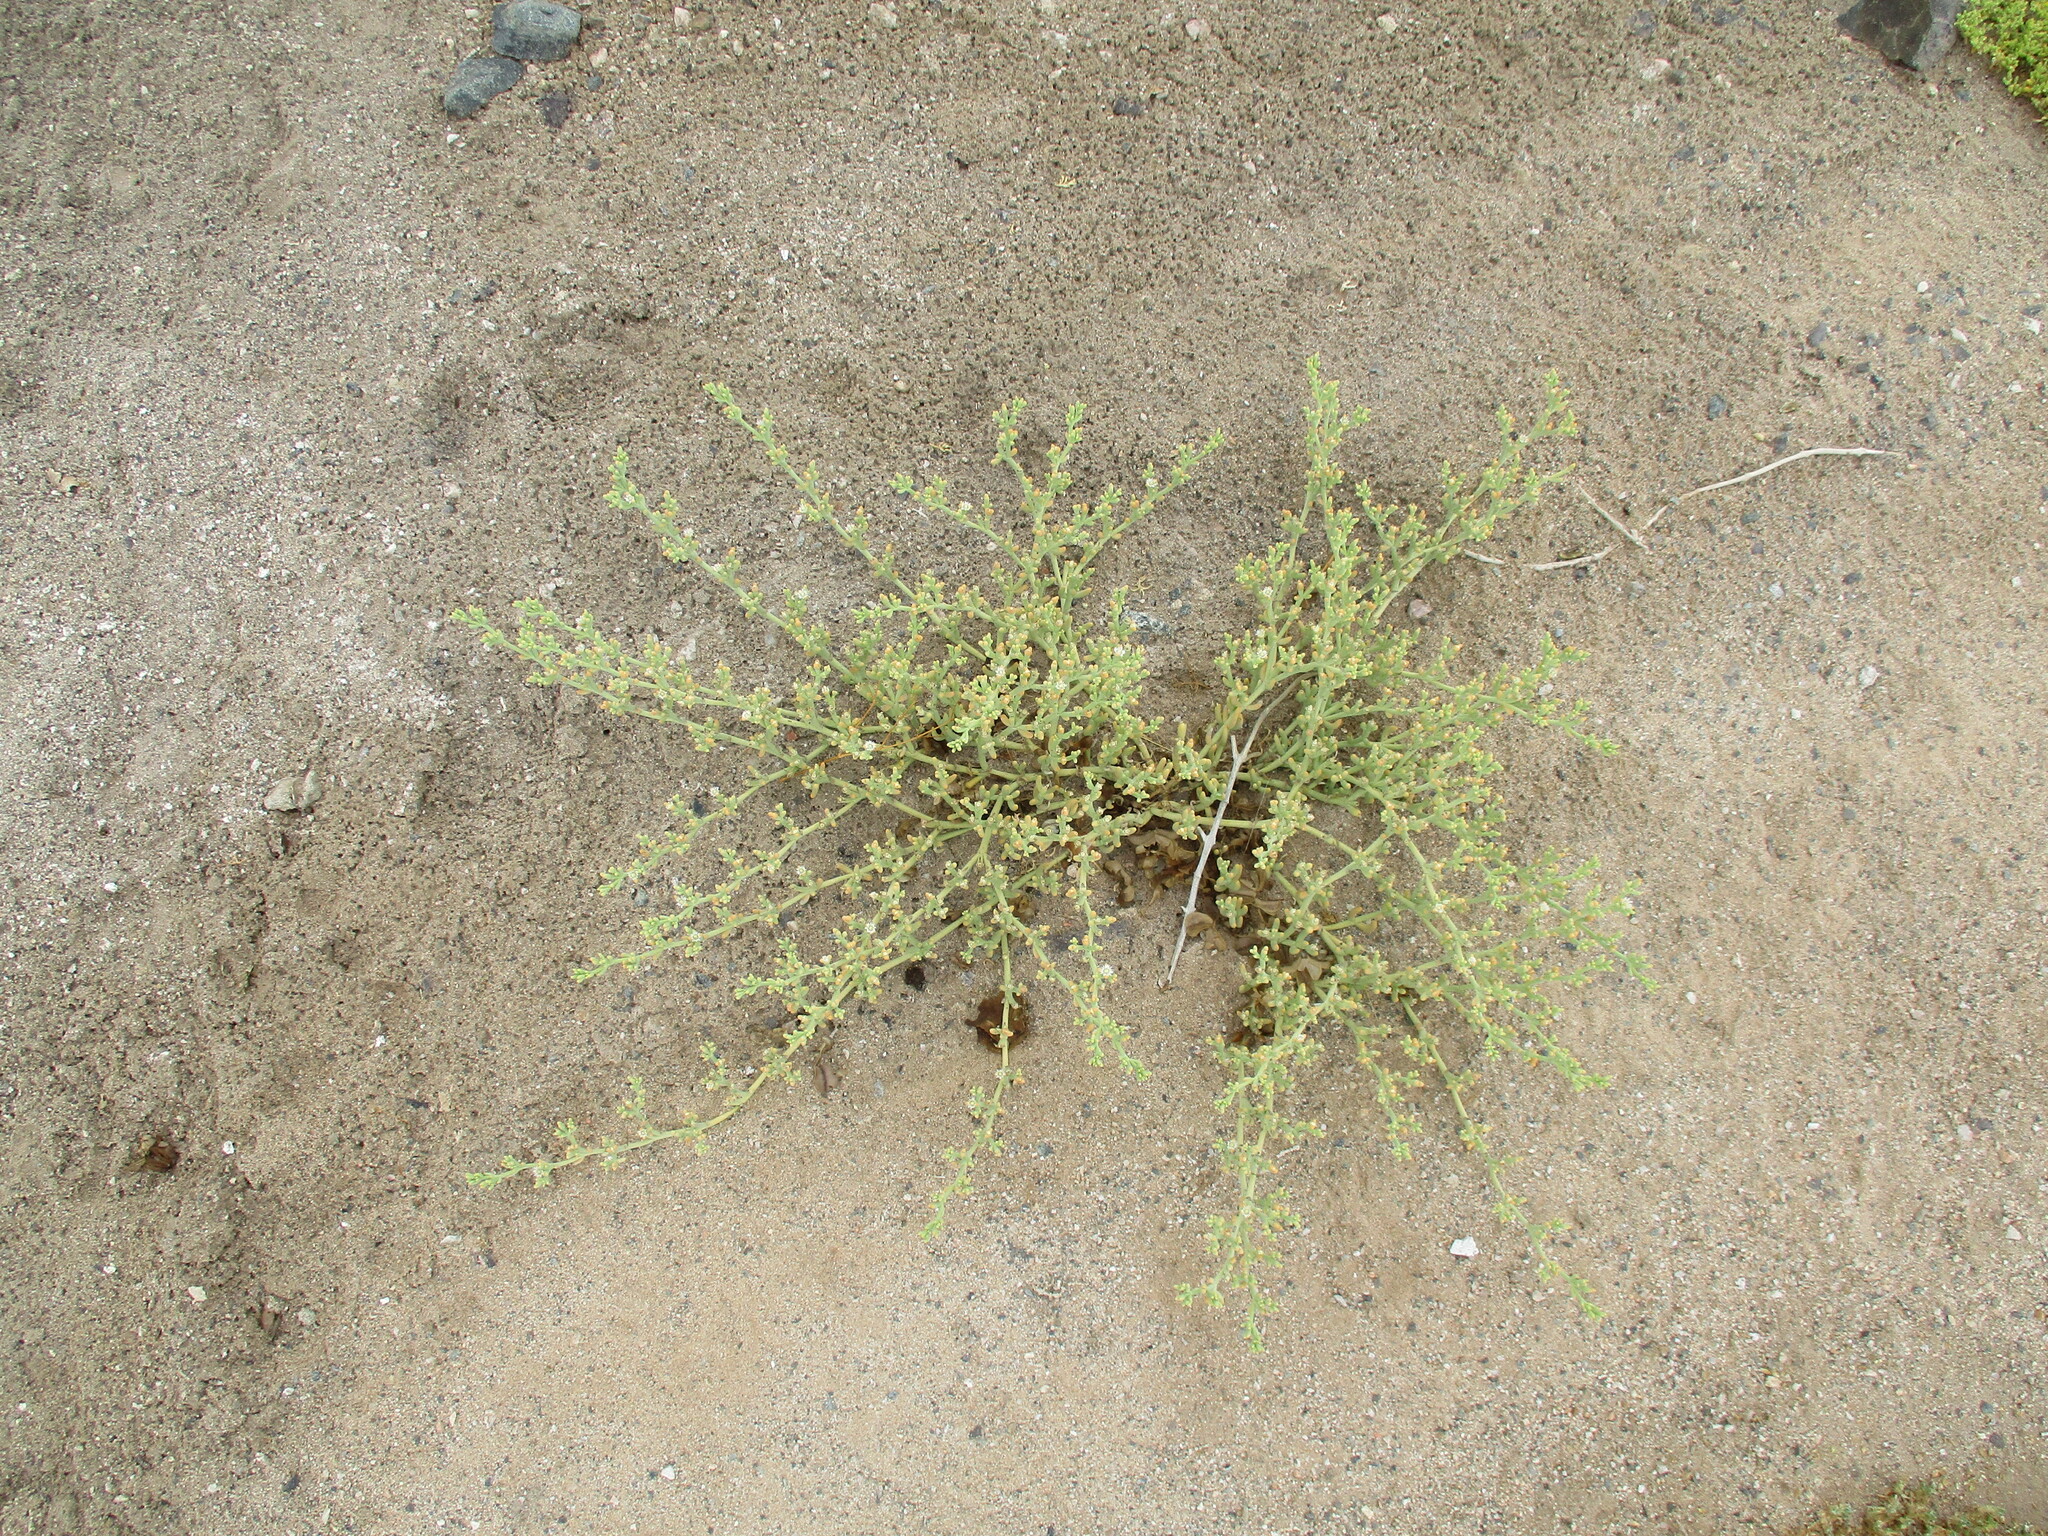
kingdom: Plantae
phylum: Tracheophyta
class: Magnoliopsida
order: Caryophyllales
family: Aizoaceae
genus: Mesembryanthemum
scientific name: Mesembryanthemum salicornioides
